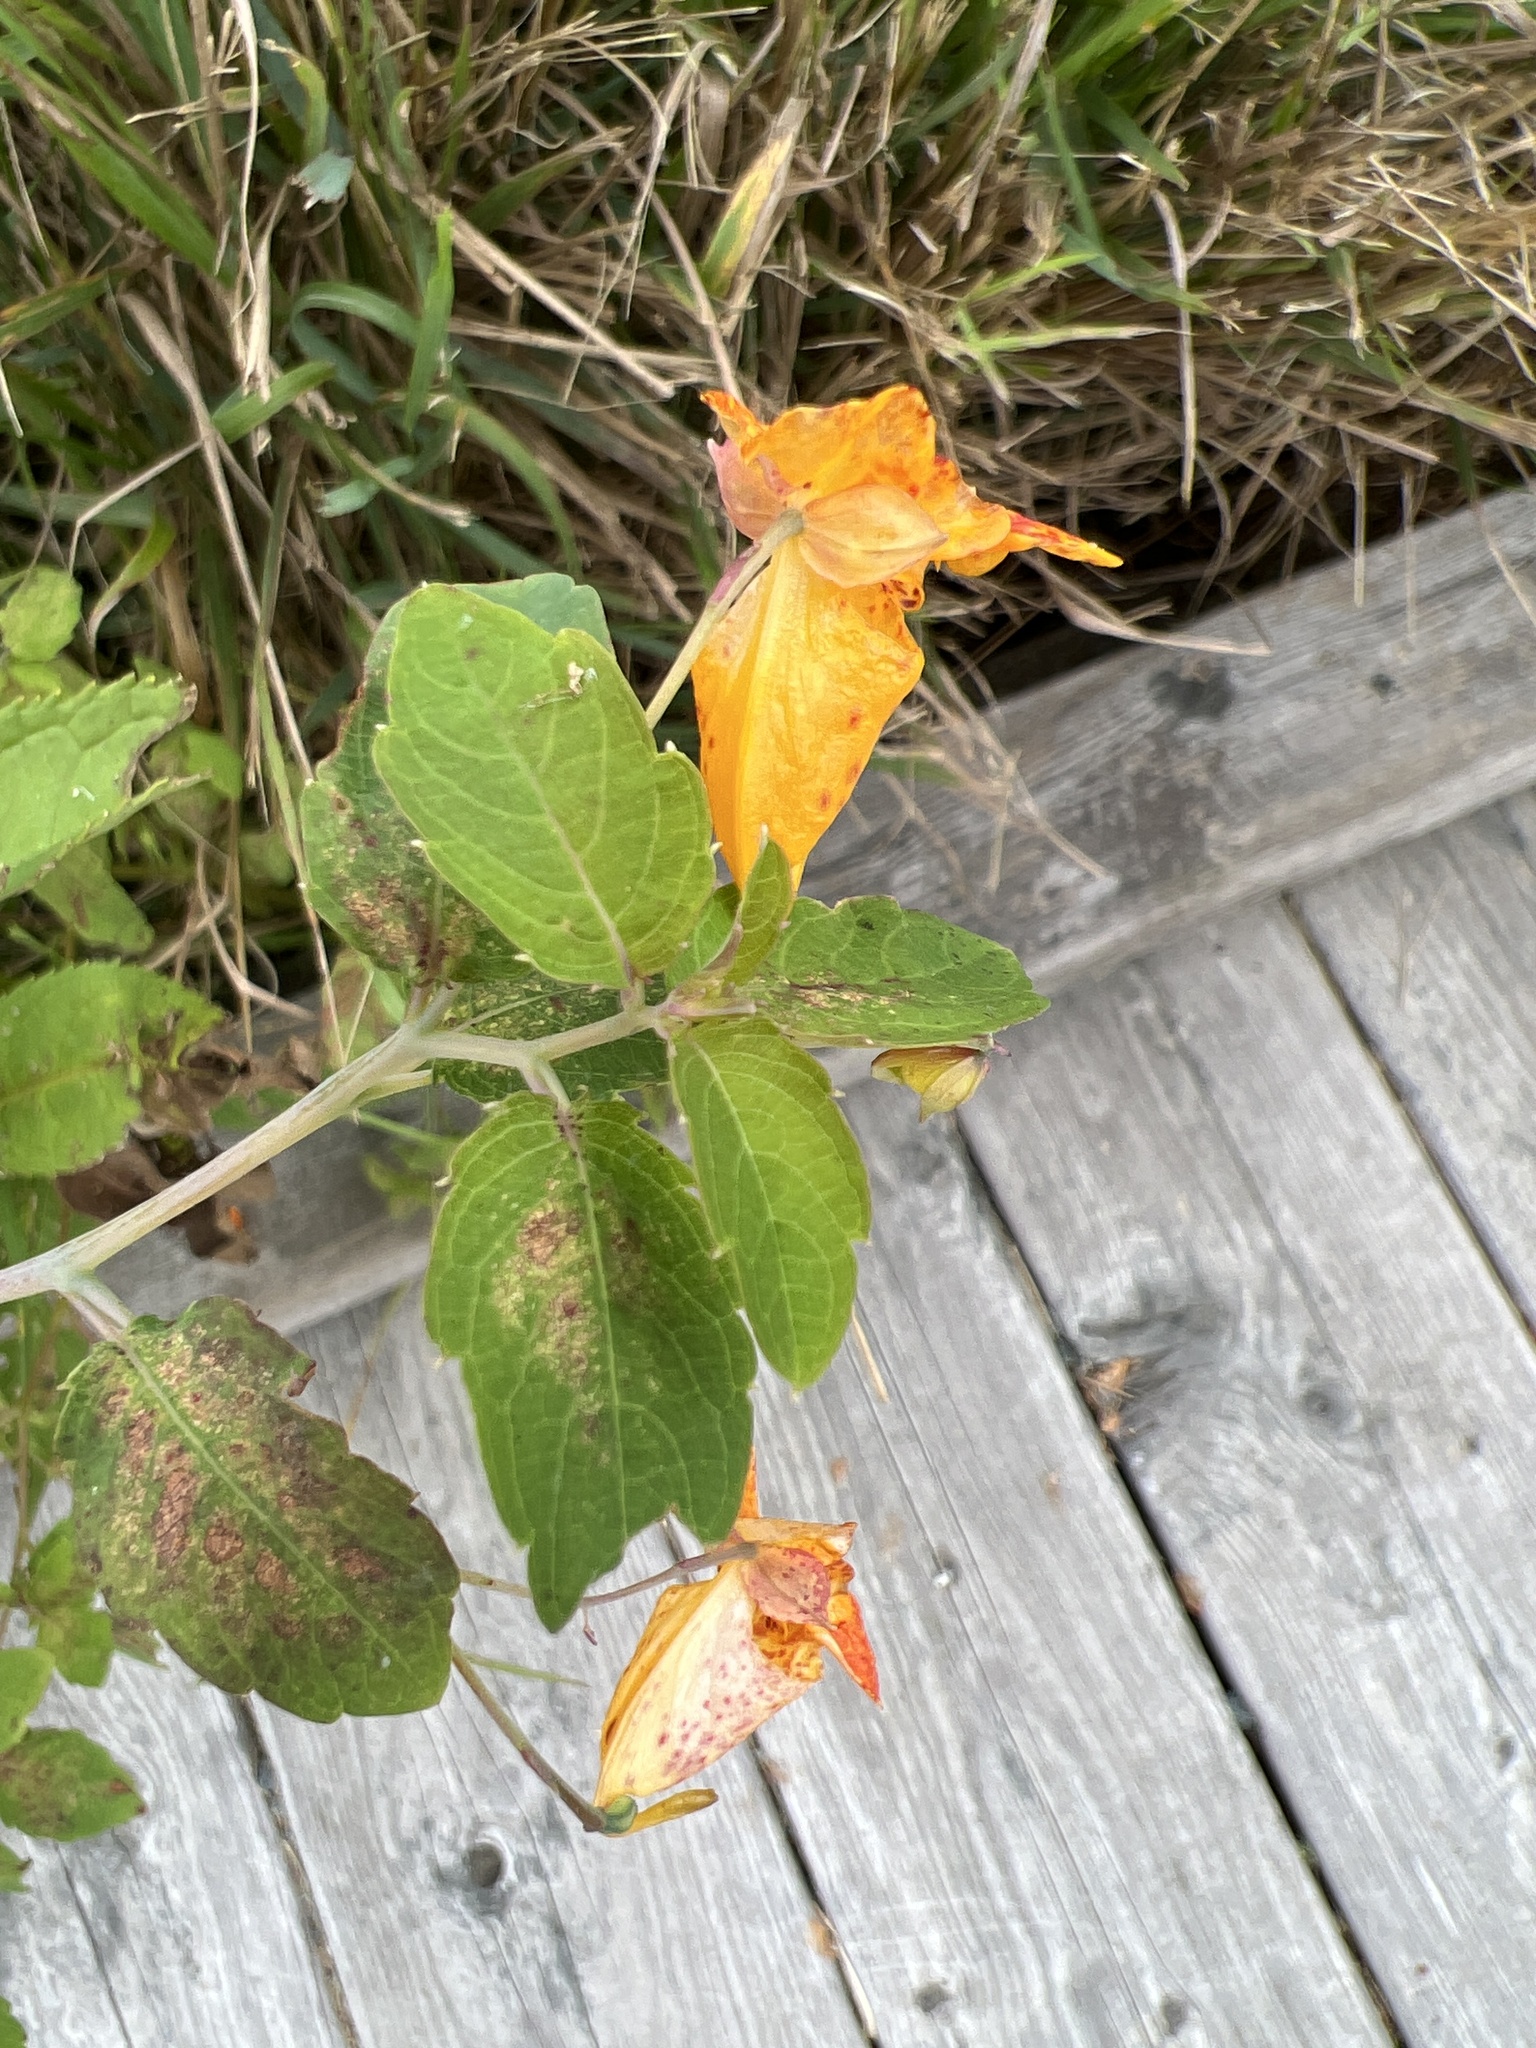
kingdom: Plantae
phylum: Tracheophyta
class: Magnoliopsida
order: Ericales
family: Balsaminaceae
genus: Impatiens
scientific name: Impatiens capensis
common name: Orange balsam
